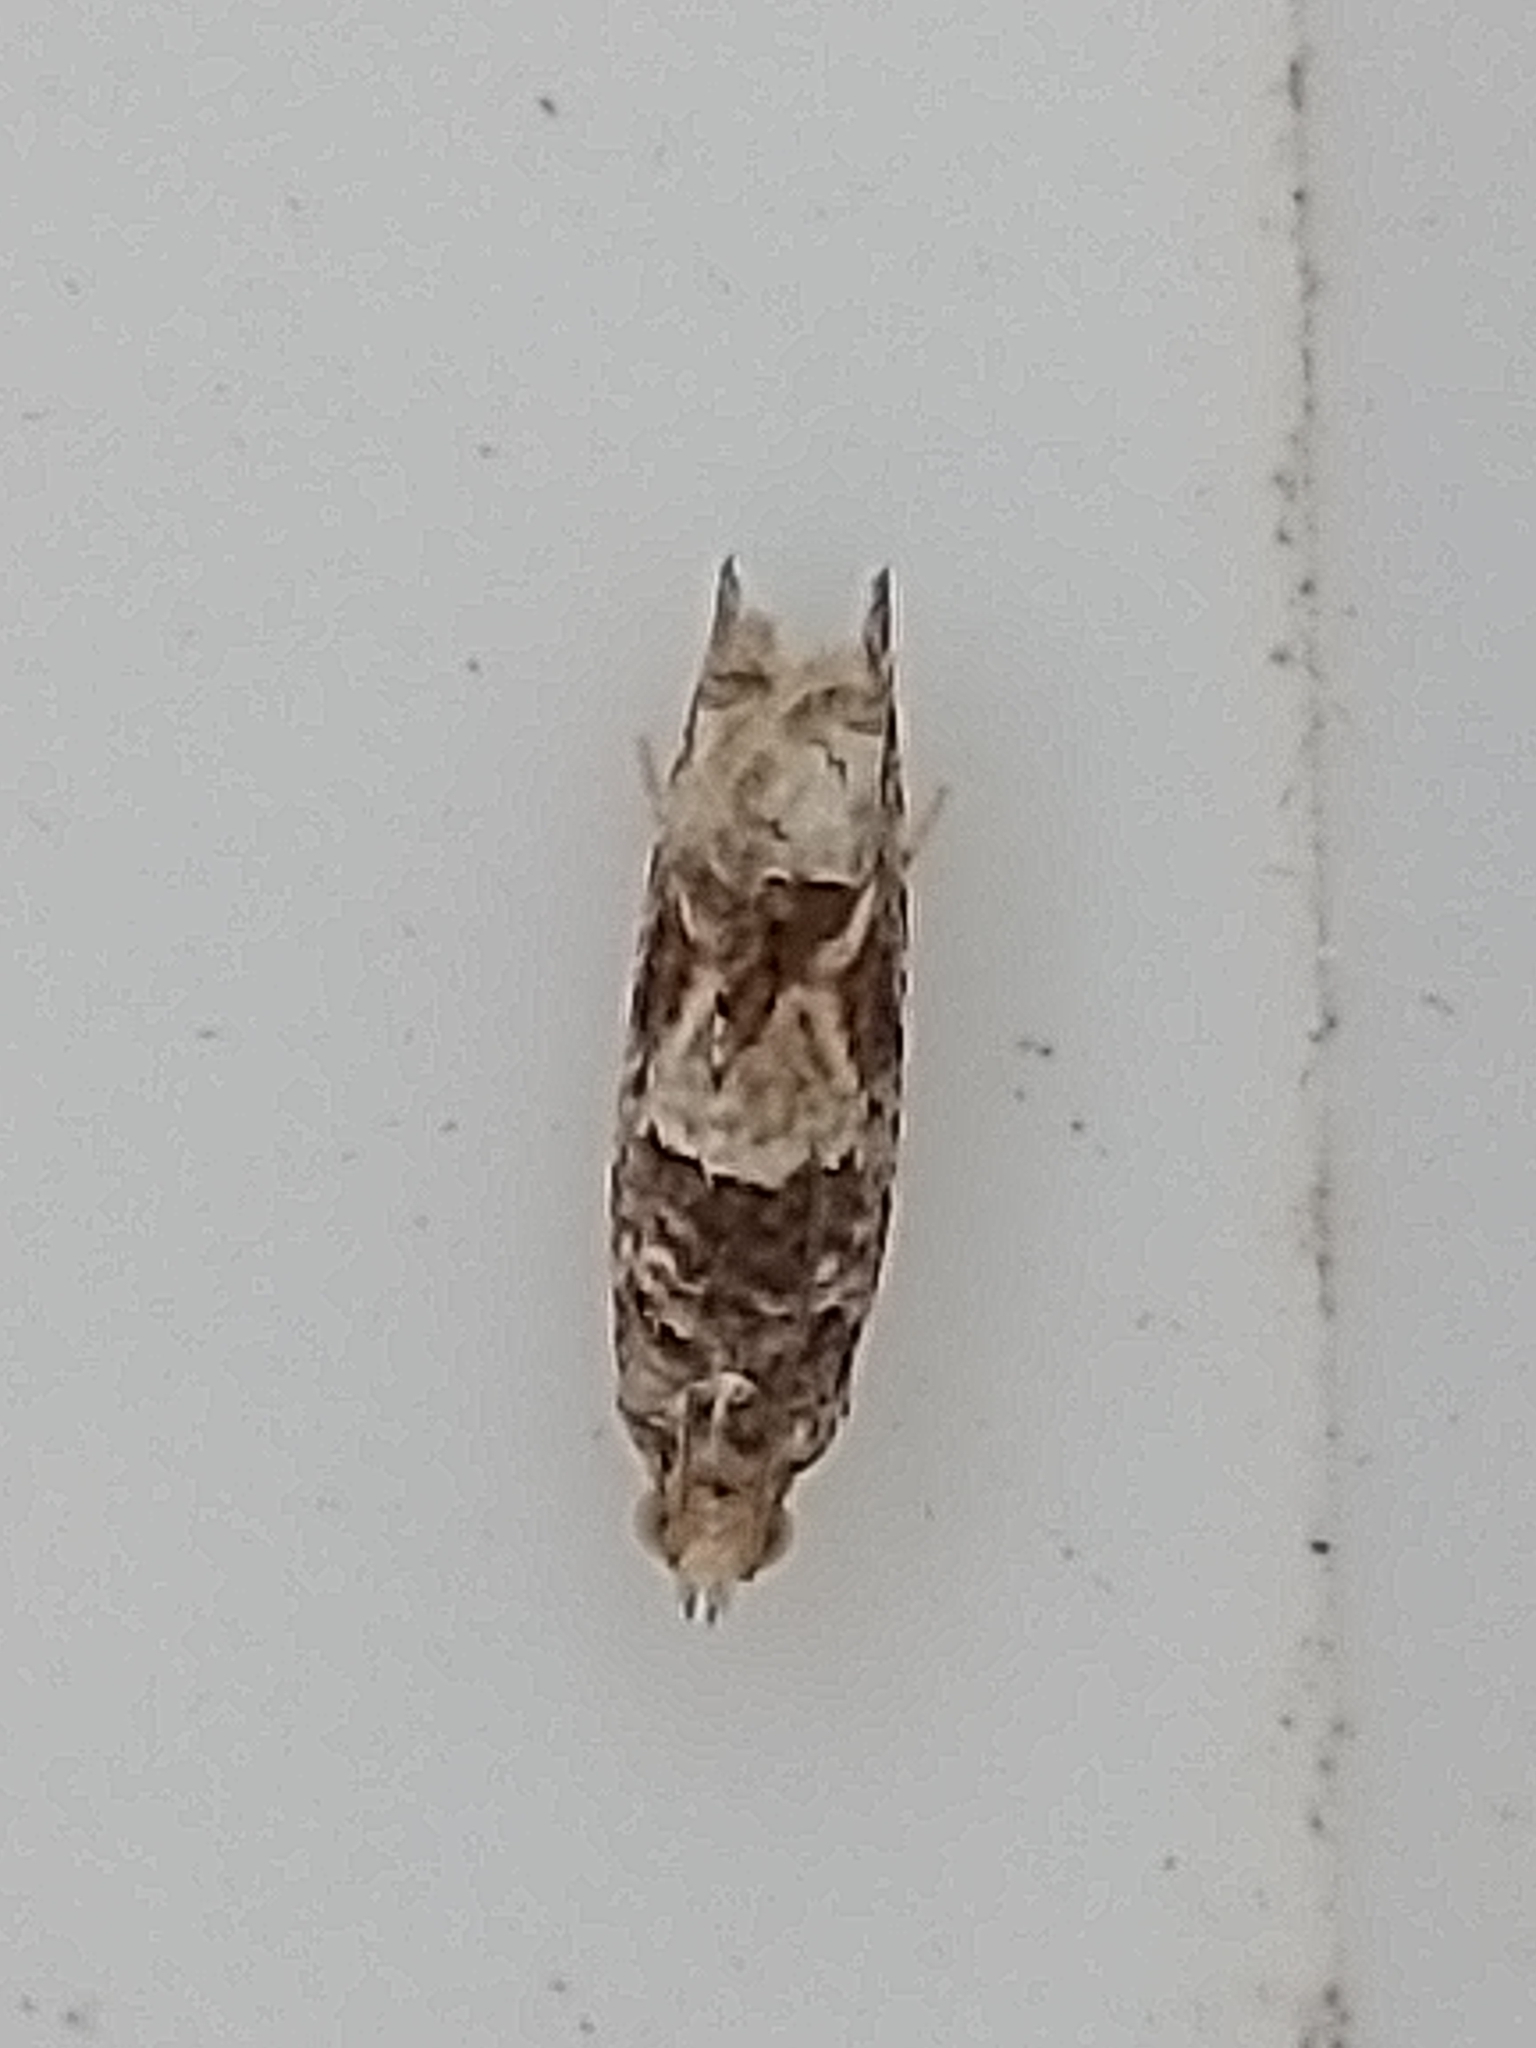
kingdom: Animalia
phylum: Arthropoda
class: Insecta
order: Lepidoptera
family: Tortricidae
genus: Crocidosema
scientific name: Crocidosema plebejana
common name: Southern bell
